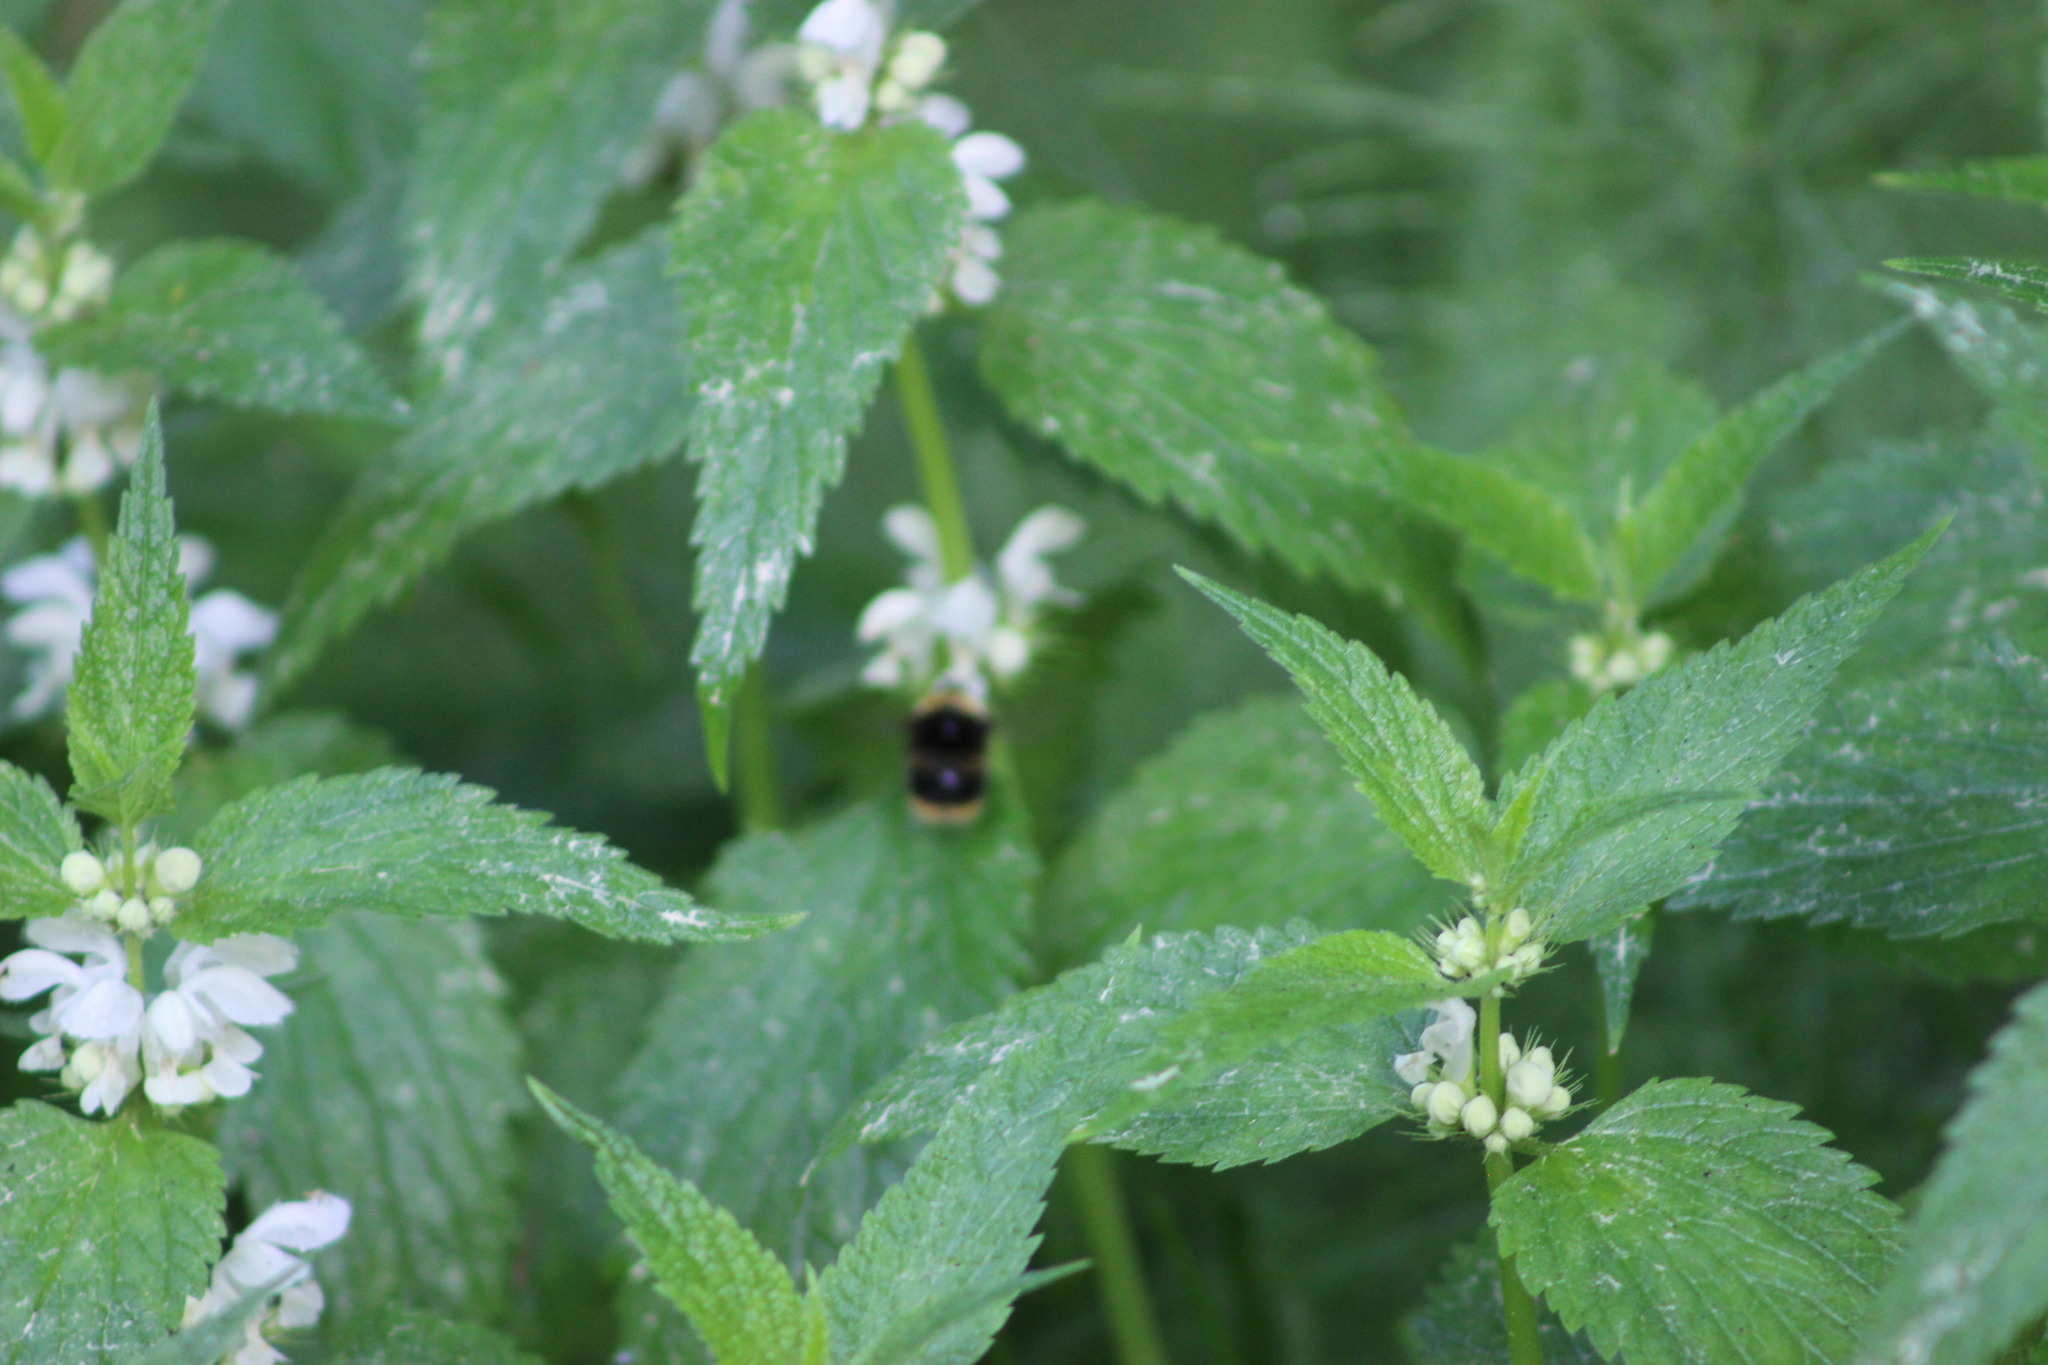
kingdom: Plantae
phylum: Tracheophyta
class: Magnoliopsida
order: Lamiales
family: Lamiaceae
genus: Lamium
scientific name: Lamium album
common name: White dead-nettle
